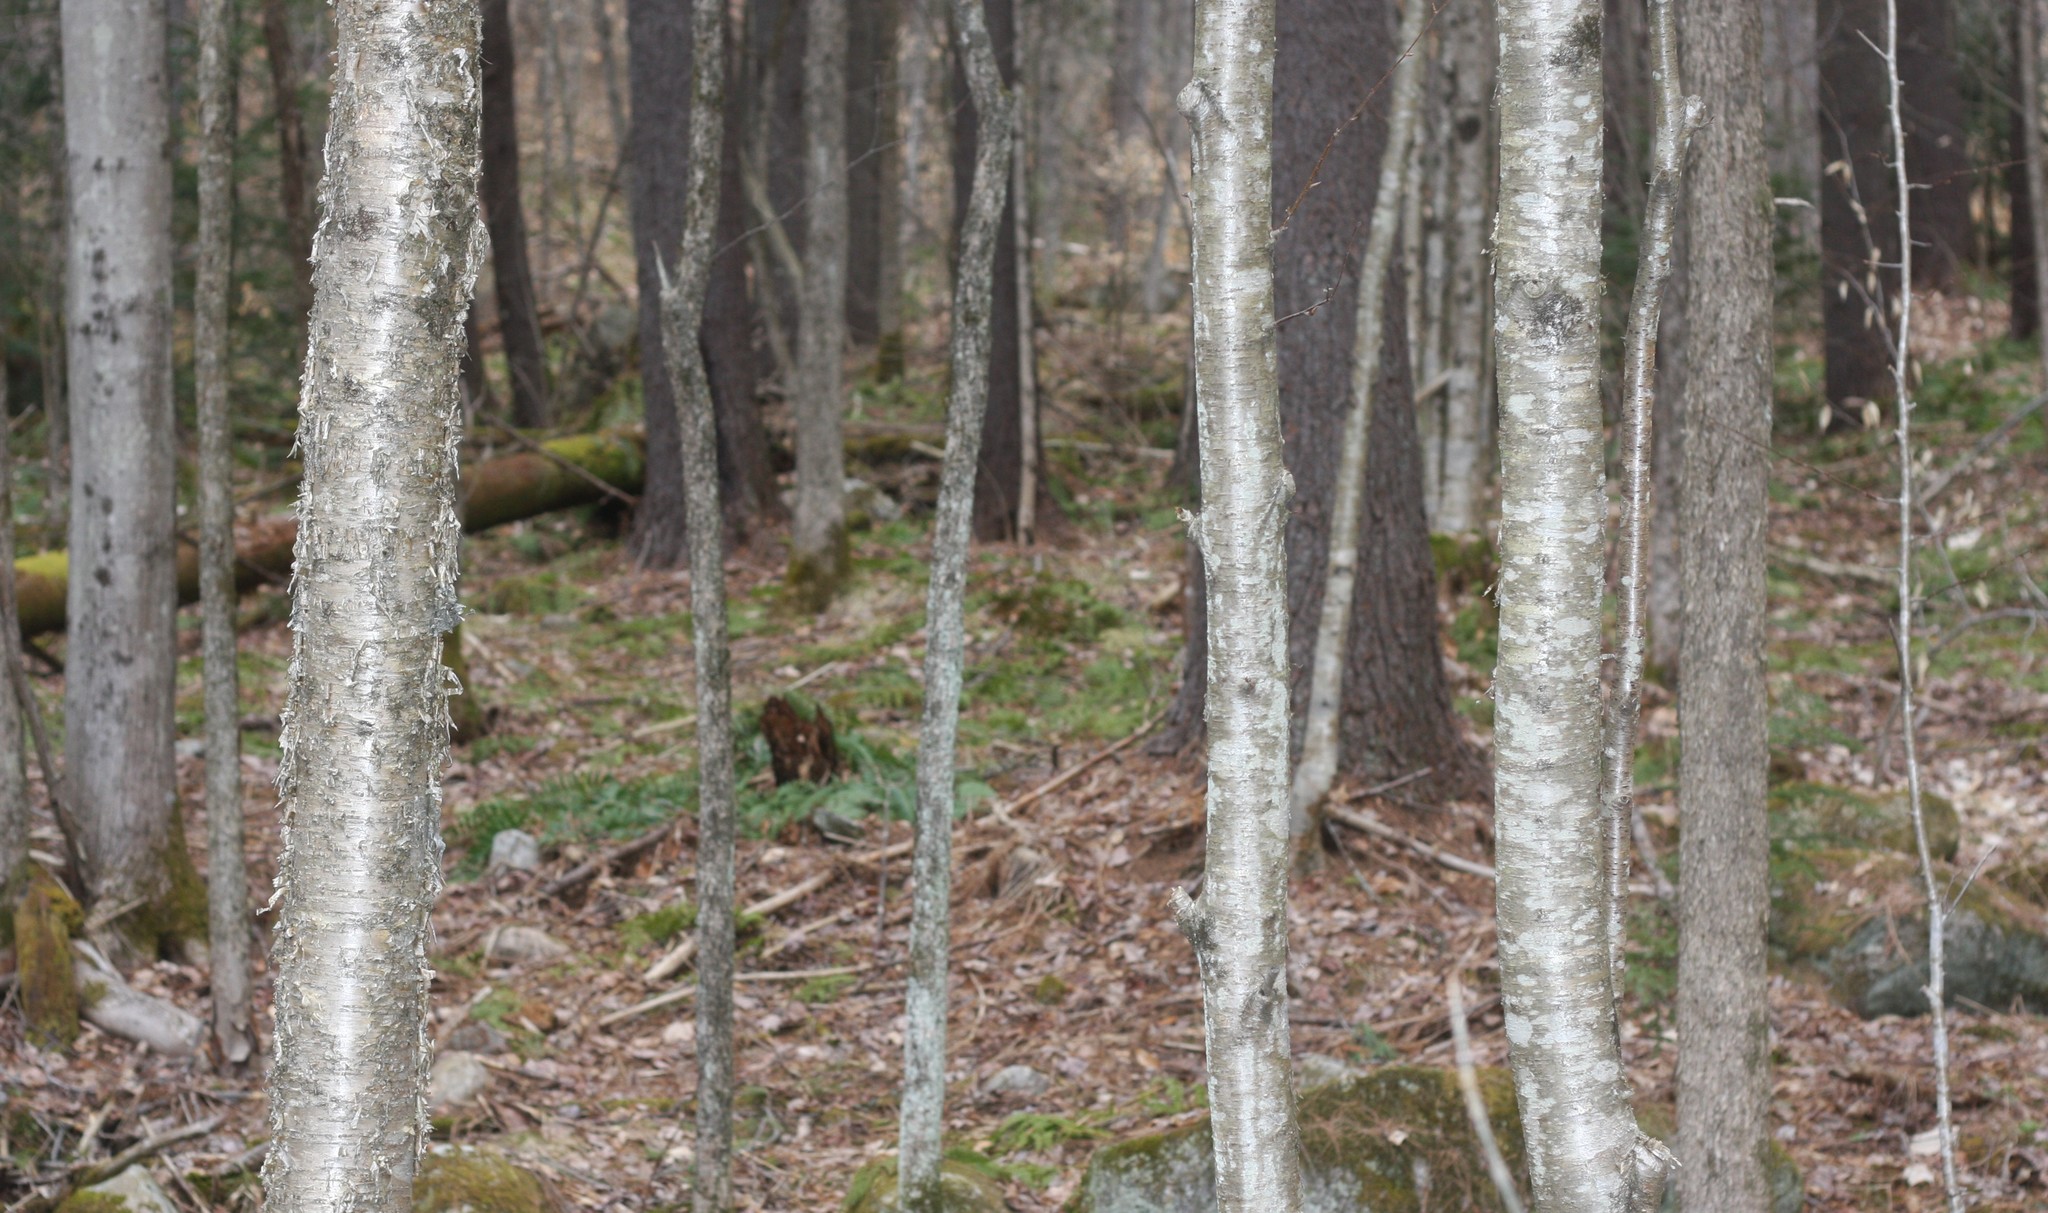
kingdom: Plantae
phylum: Tracheophyta
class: Magnoliopsida
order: Fagales
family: Betulaceae
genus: Betula
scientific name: Betula alleghaniensis
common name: Yellow birch
